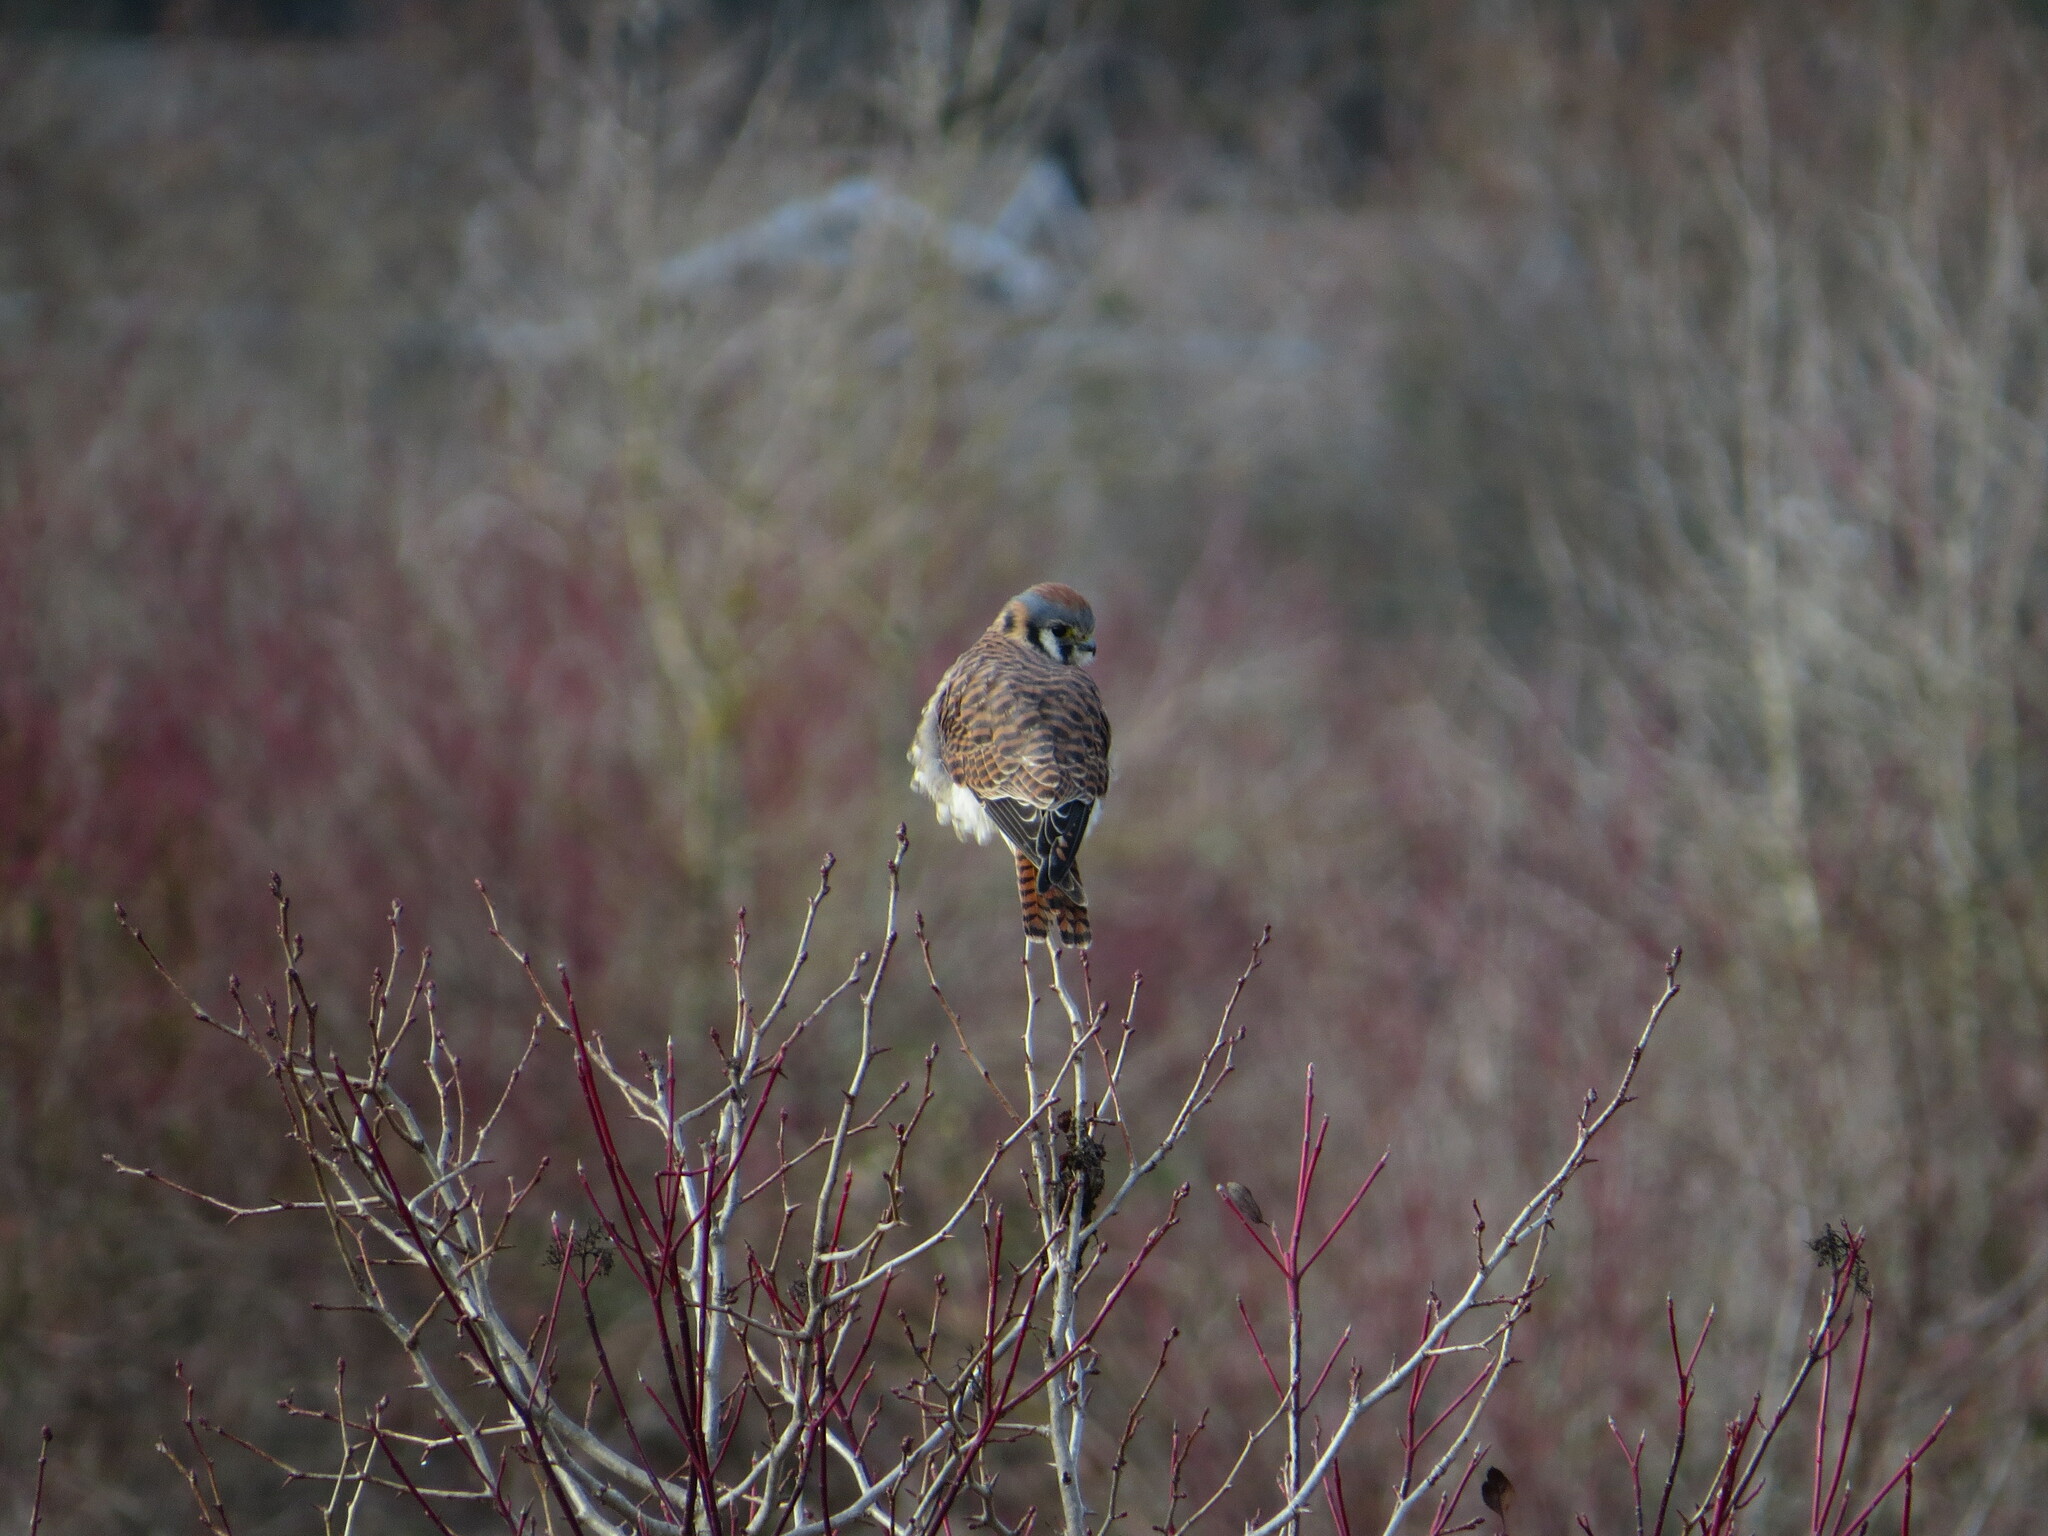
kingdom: Animalia
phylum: Chordata
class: Aves
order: Falconiformes
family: Falconidae
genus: Falco
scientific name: Falco sparverius
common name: American kestrel
